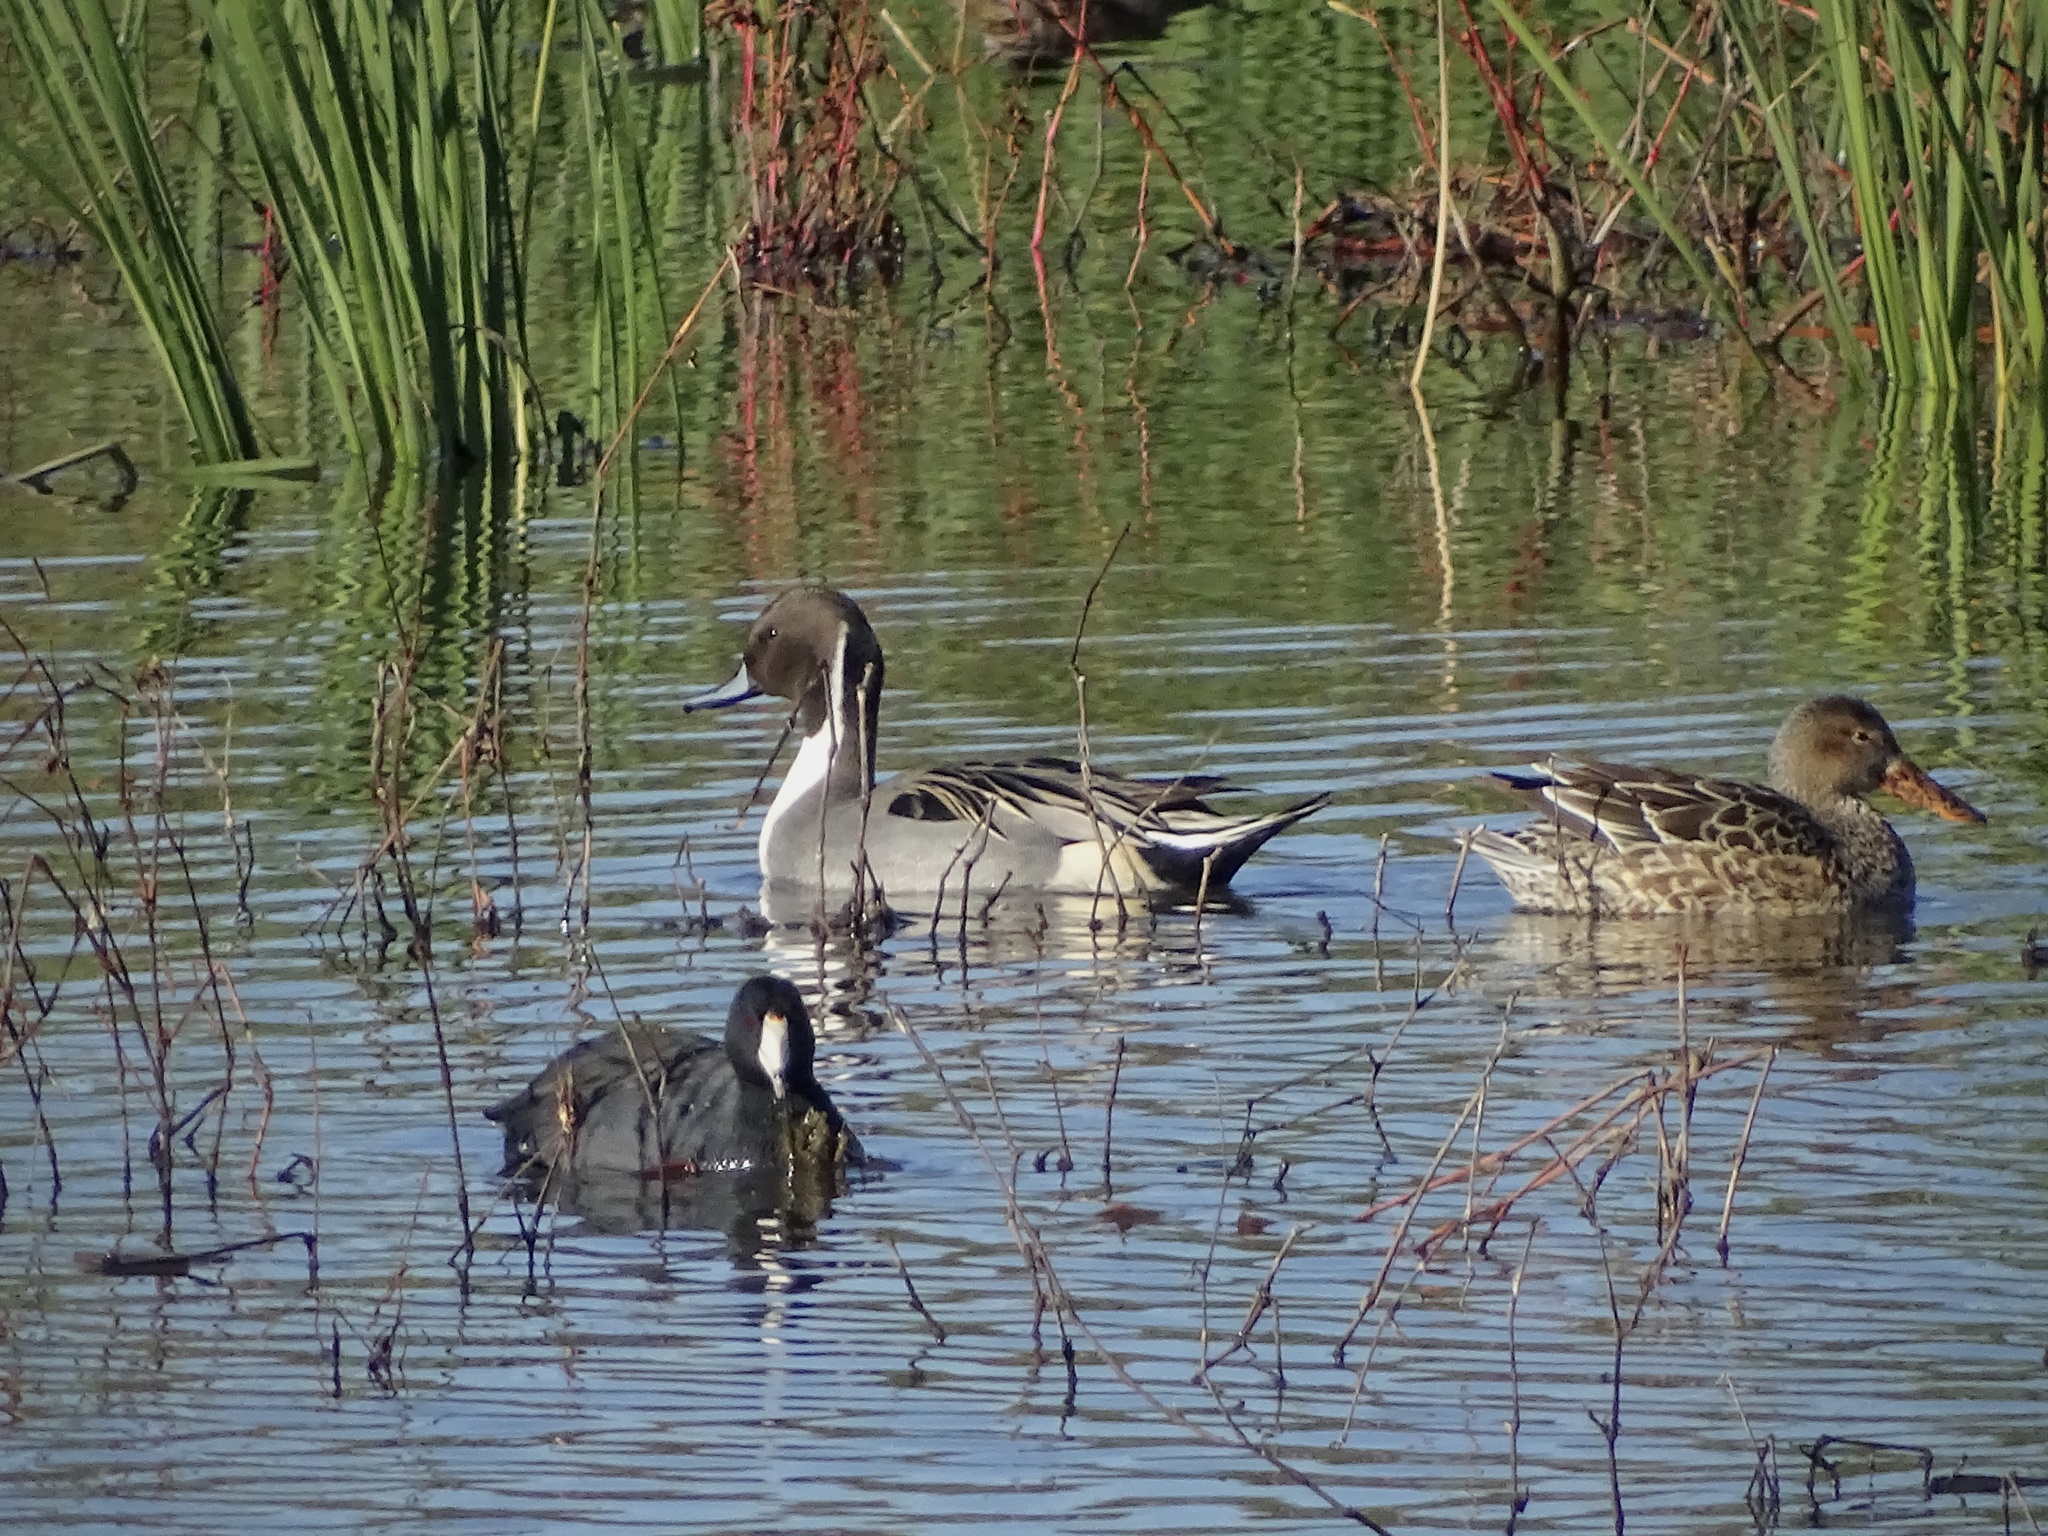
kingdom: Animalia
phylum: Chordata
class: Aves
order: Anseriformes
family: Anatidae
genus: Spatula
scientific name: Spatula clypeata
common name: Northern shoveler
